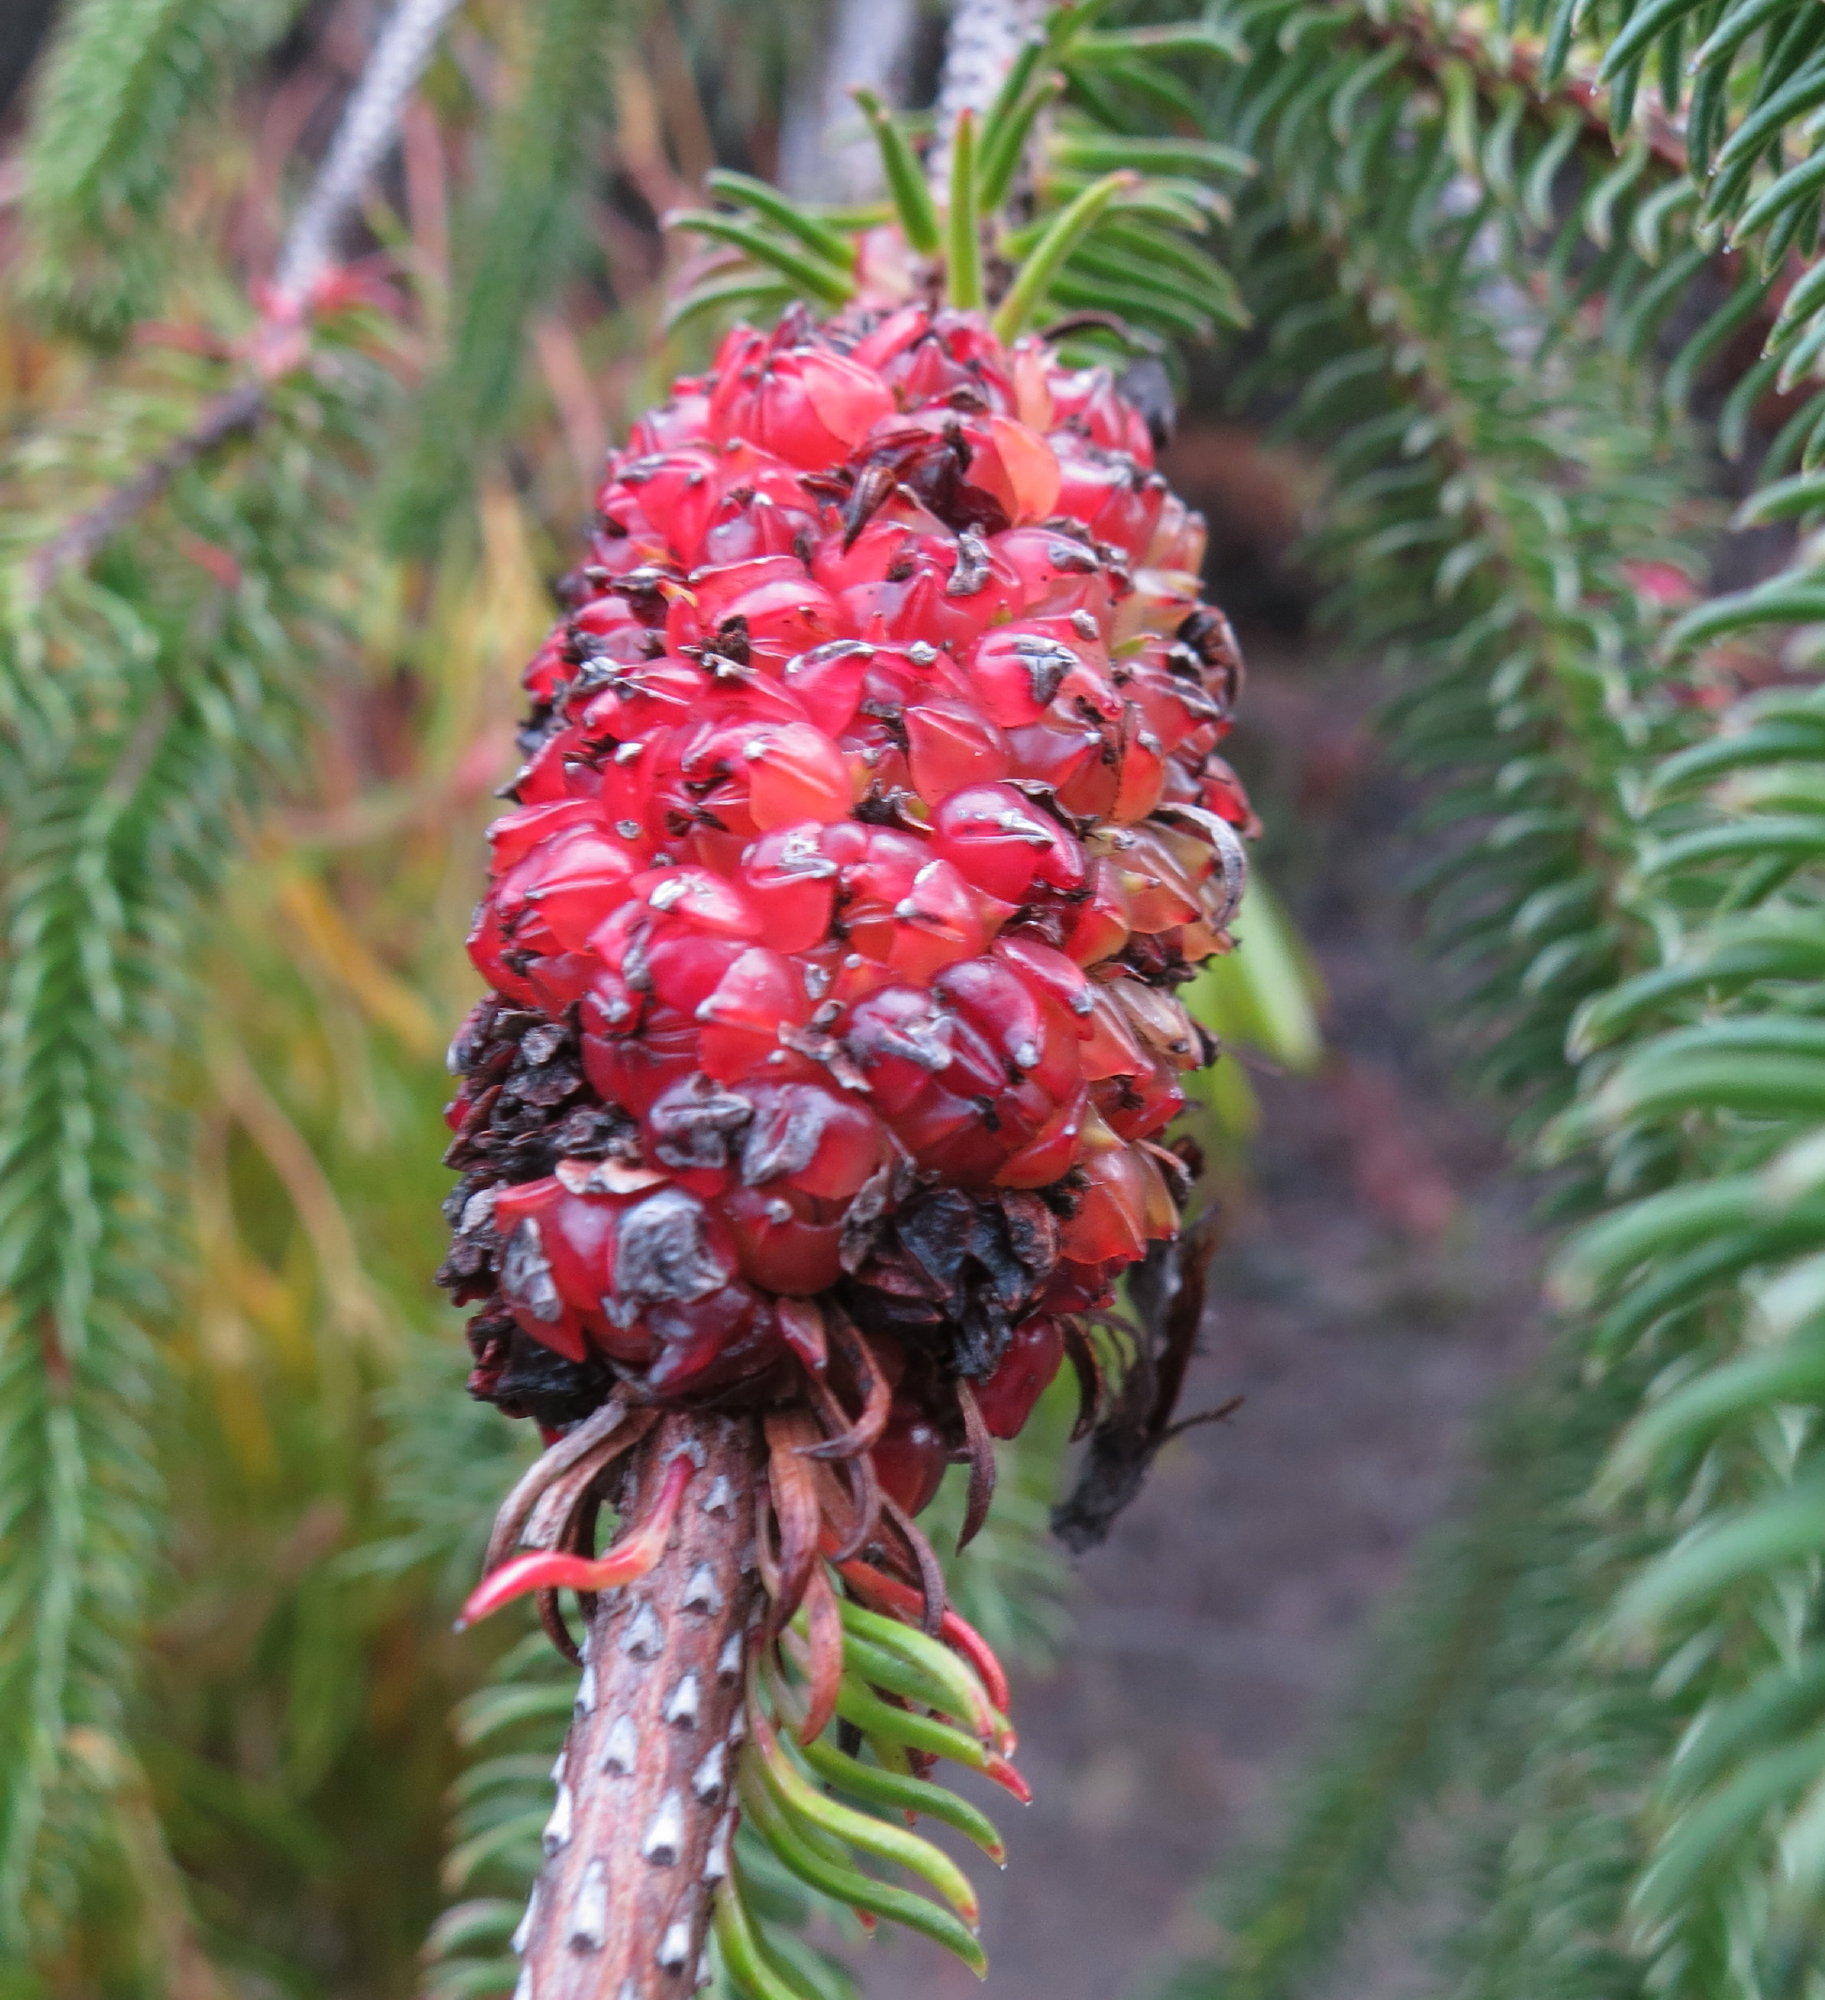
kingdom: Plantae
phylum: Tracheophyta
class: Magnoliopsida
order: Ericales
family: Ericaceae
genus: Erica
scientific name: Erica sessiliflora
